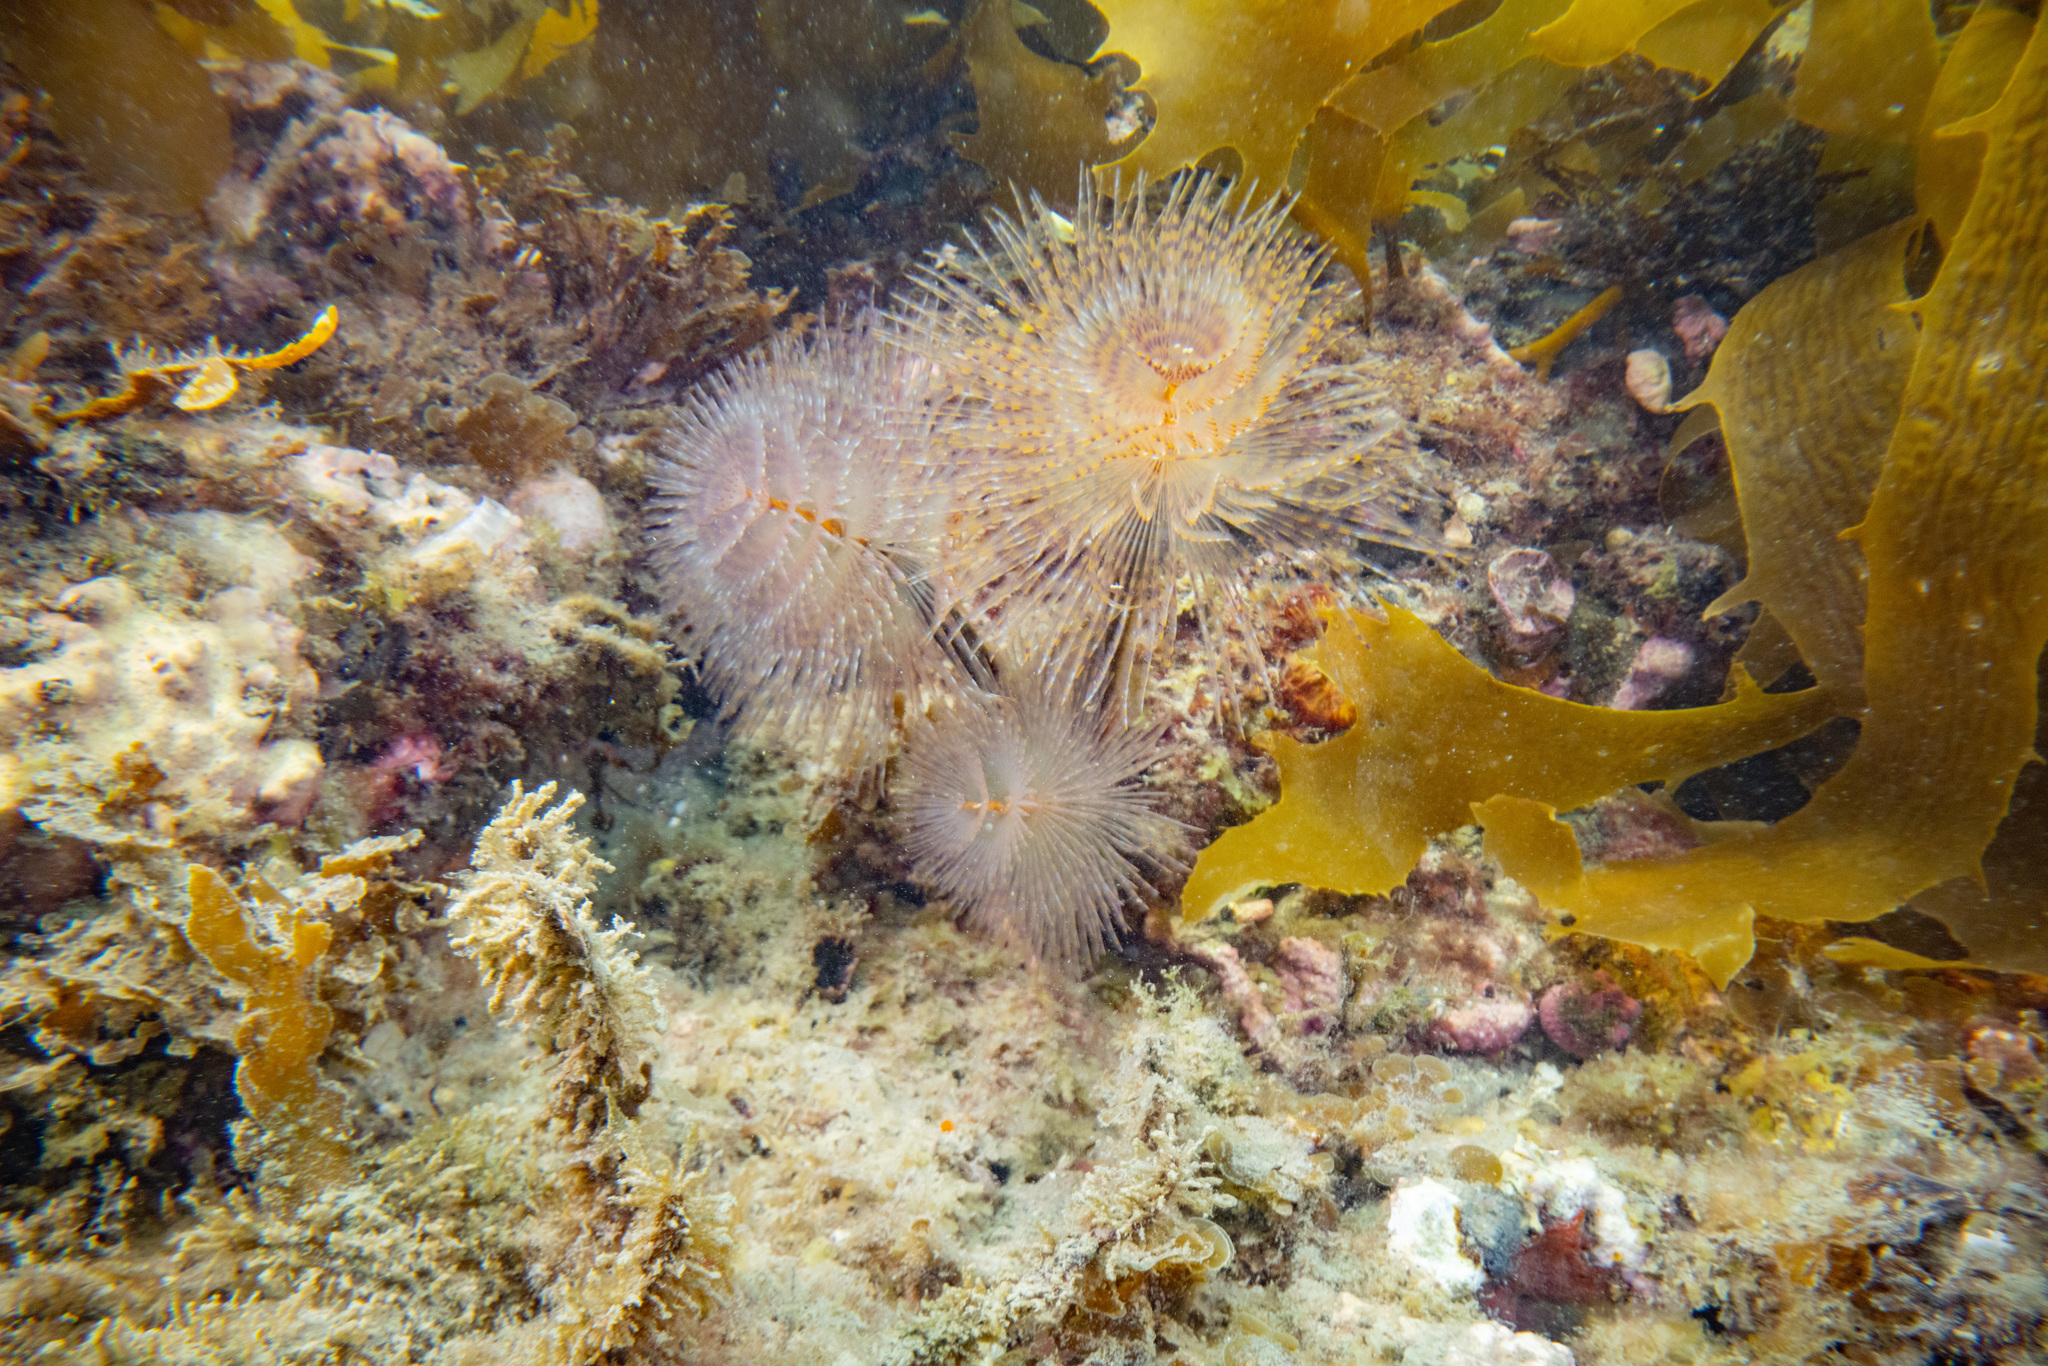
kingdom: Animalia
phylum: Annelida
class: Polychaeta
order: Sabellida
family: Sabellidae
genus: Sabella
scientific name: Sabella spallanzanii
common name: Feather duster worm
